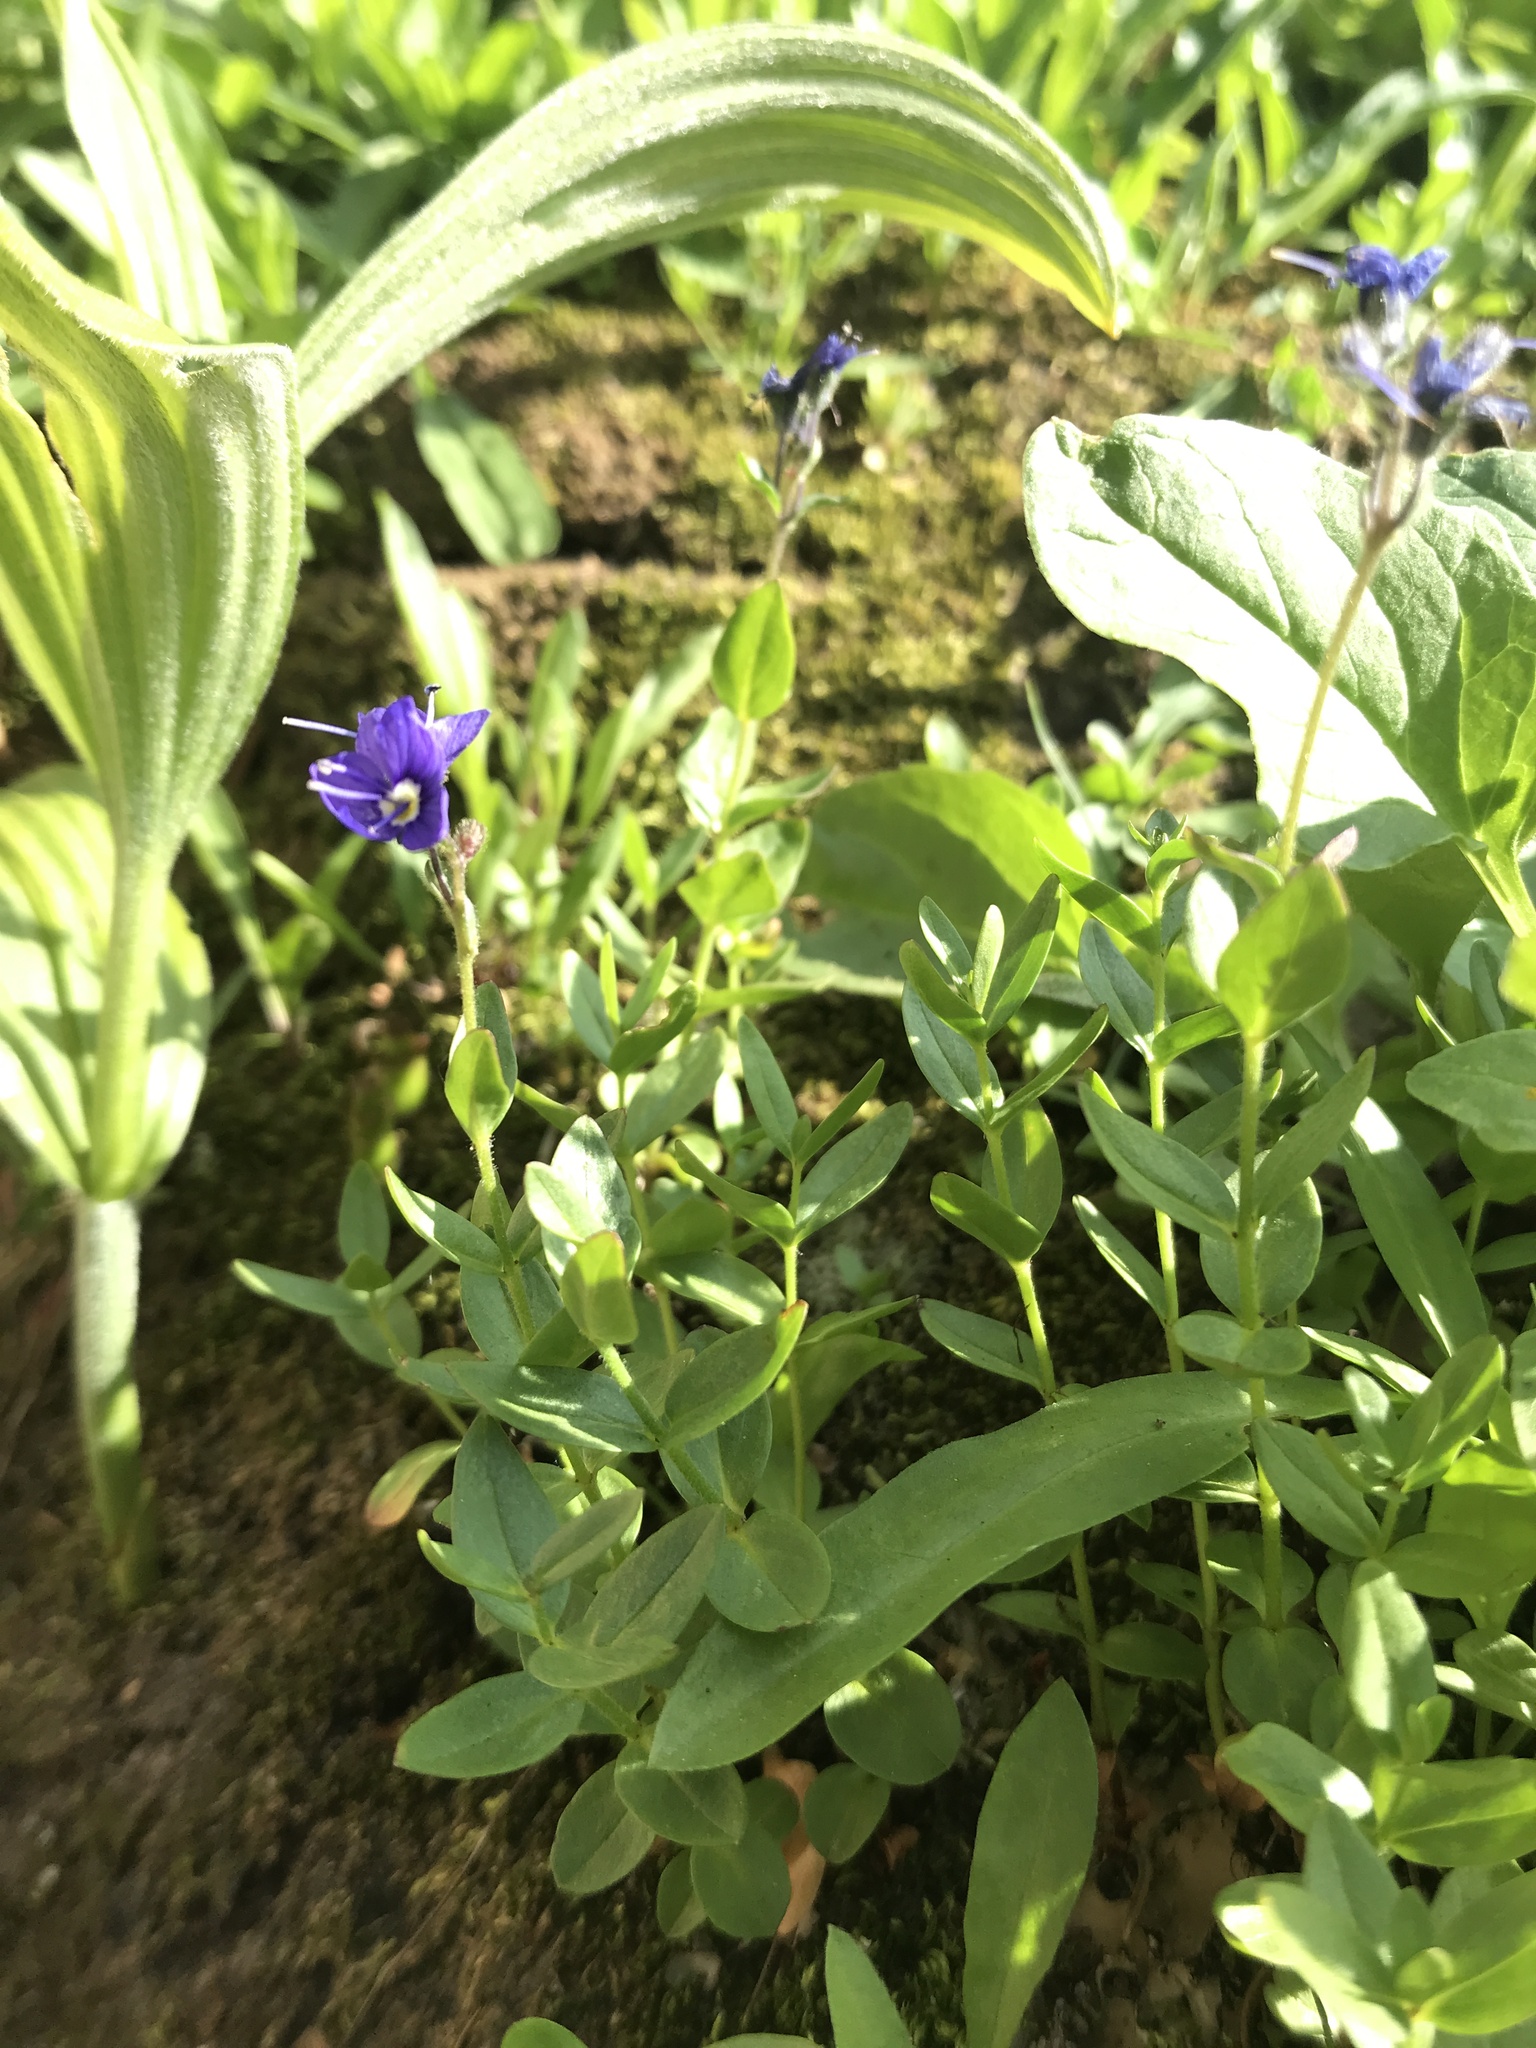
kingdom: Plantae
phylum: Tracheophyta
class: Magnoliopsida
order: Lamiales
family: Plantaginaceae
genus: Veronica
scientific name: Veronica cusickii
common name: Cusick's speedwell
